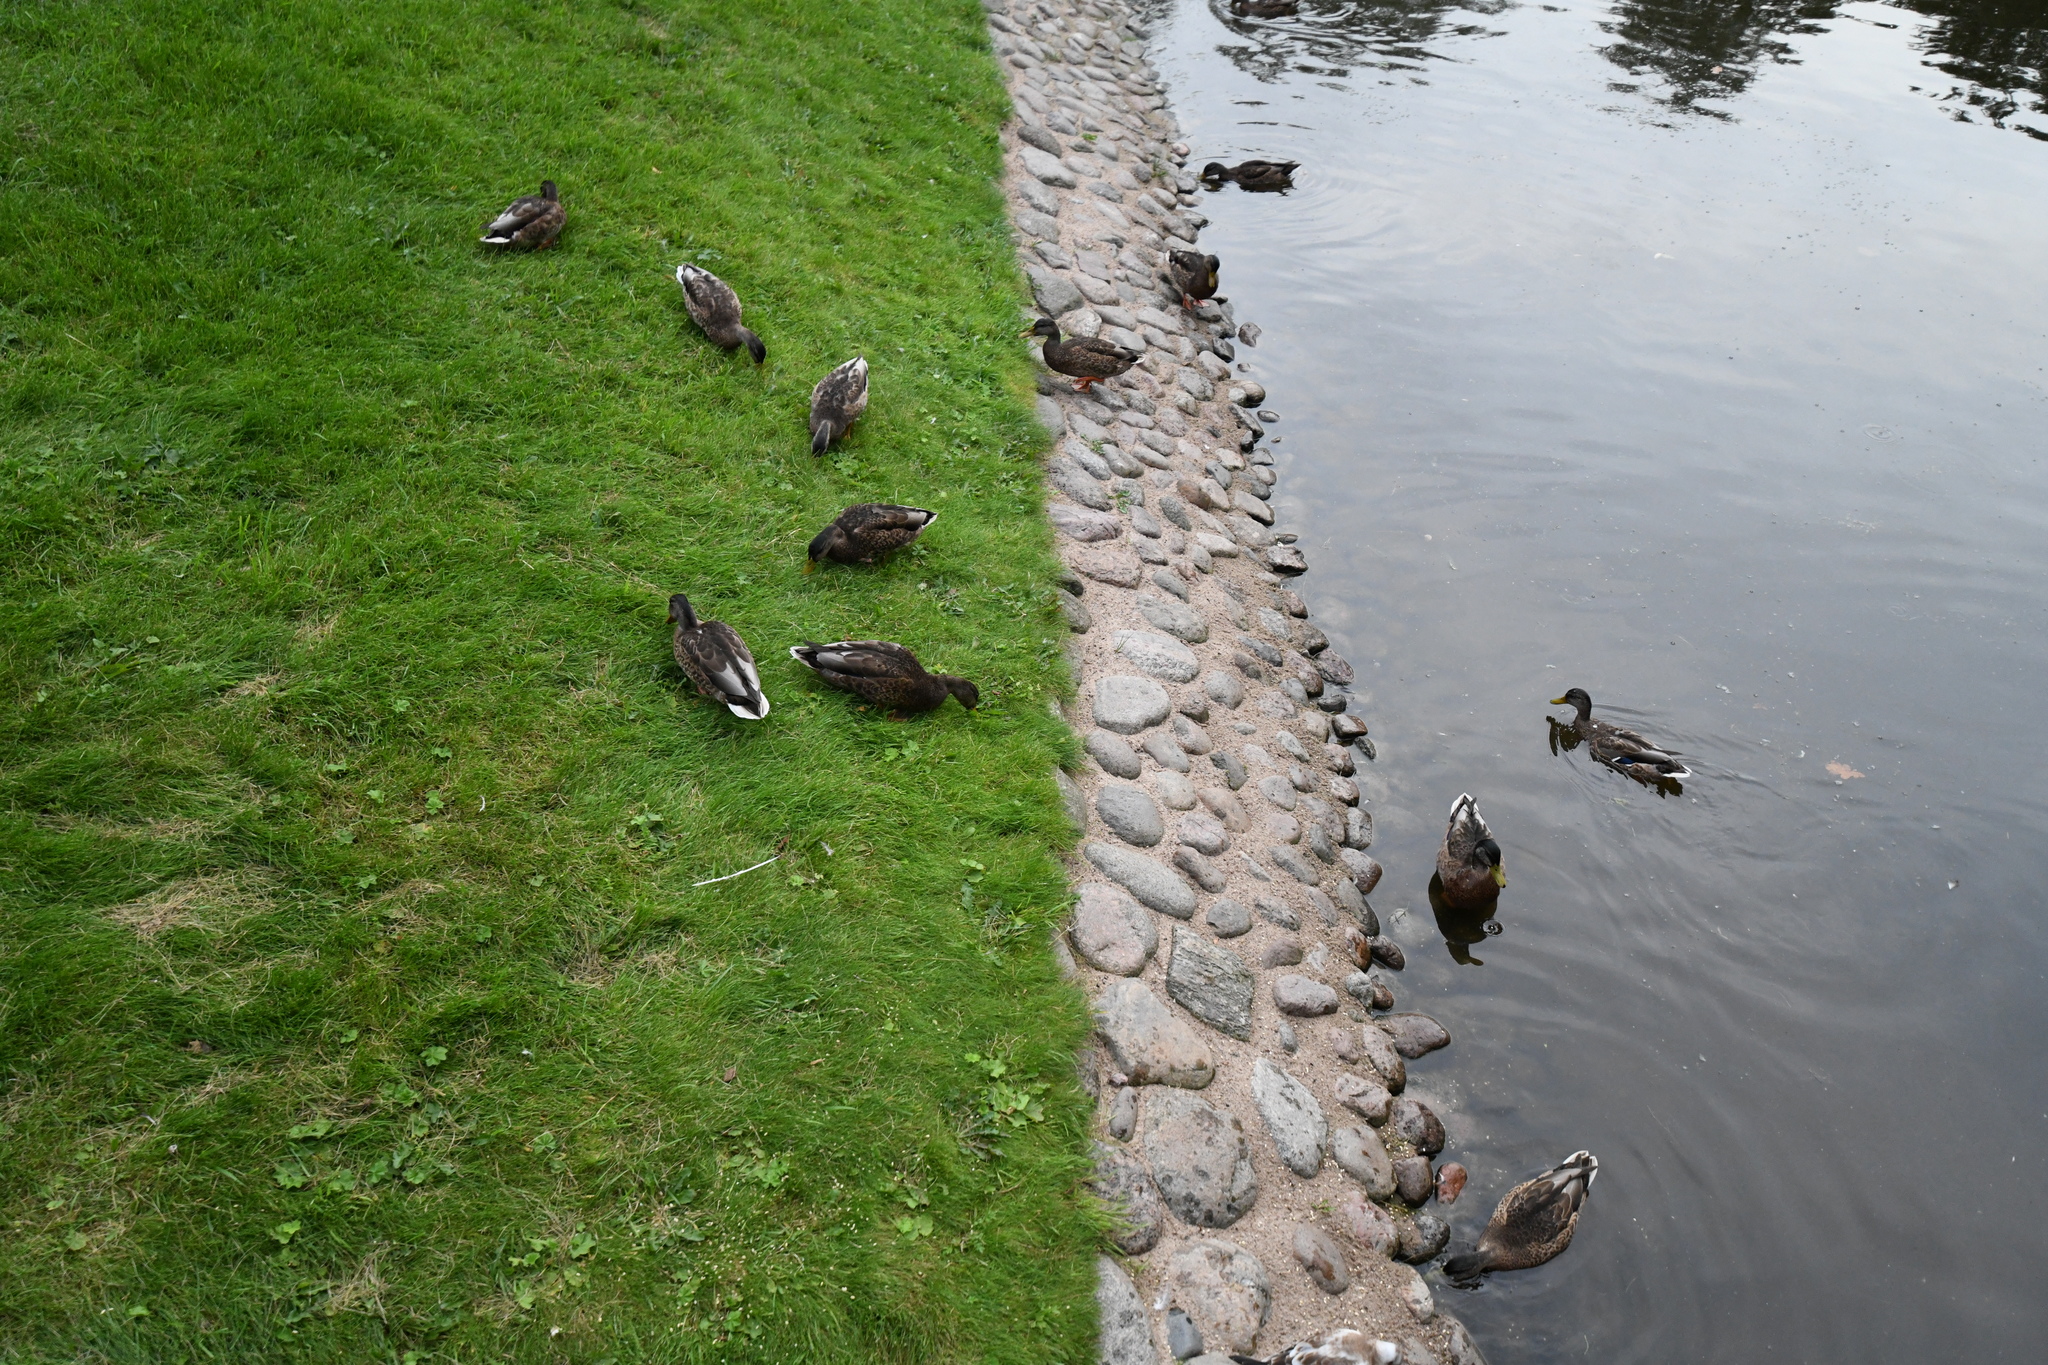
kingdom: Animalia
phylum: Chordata
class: Aves
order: Anseriformes
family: Anatidae
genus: Anas
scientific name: Anas platyrhynchos
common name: Mallard
